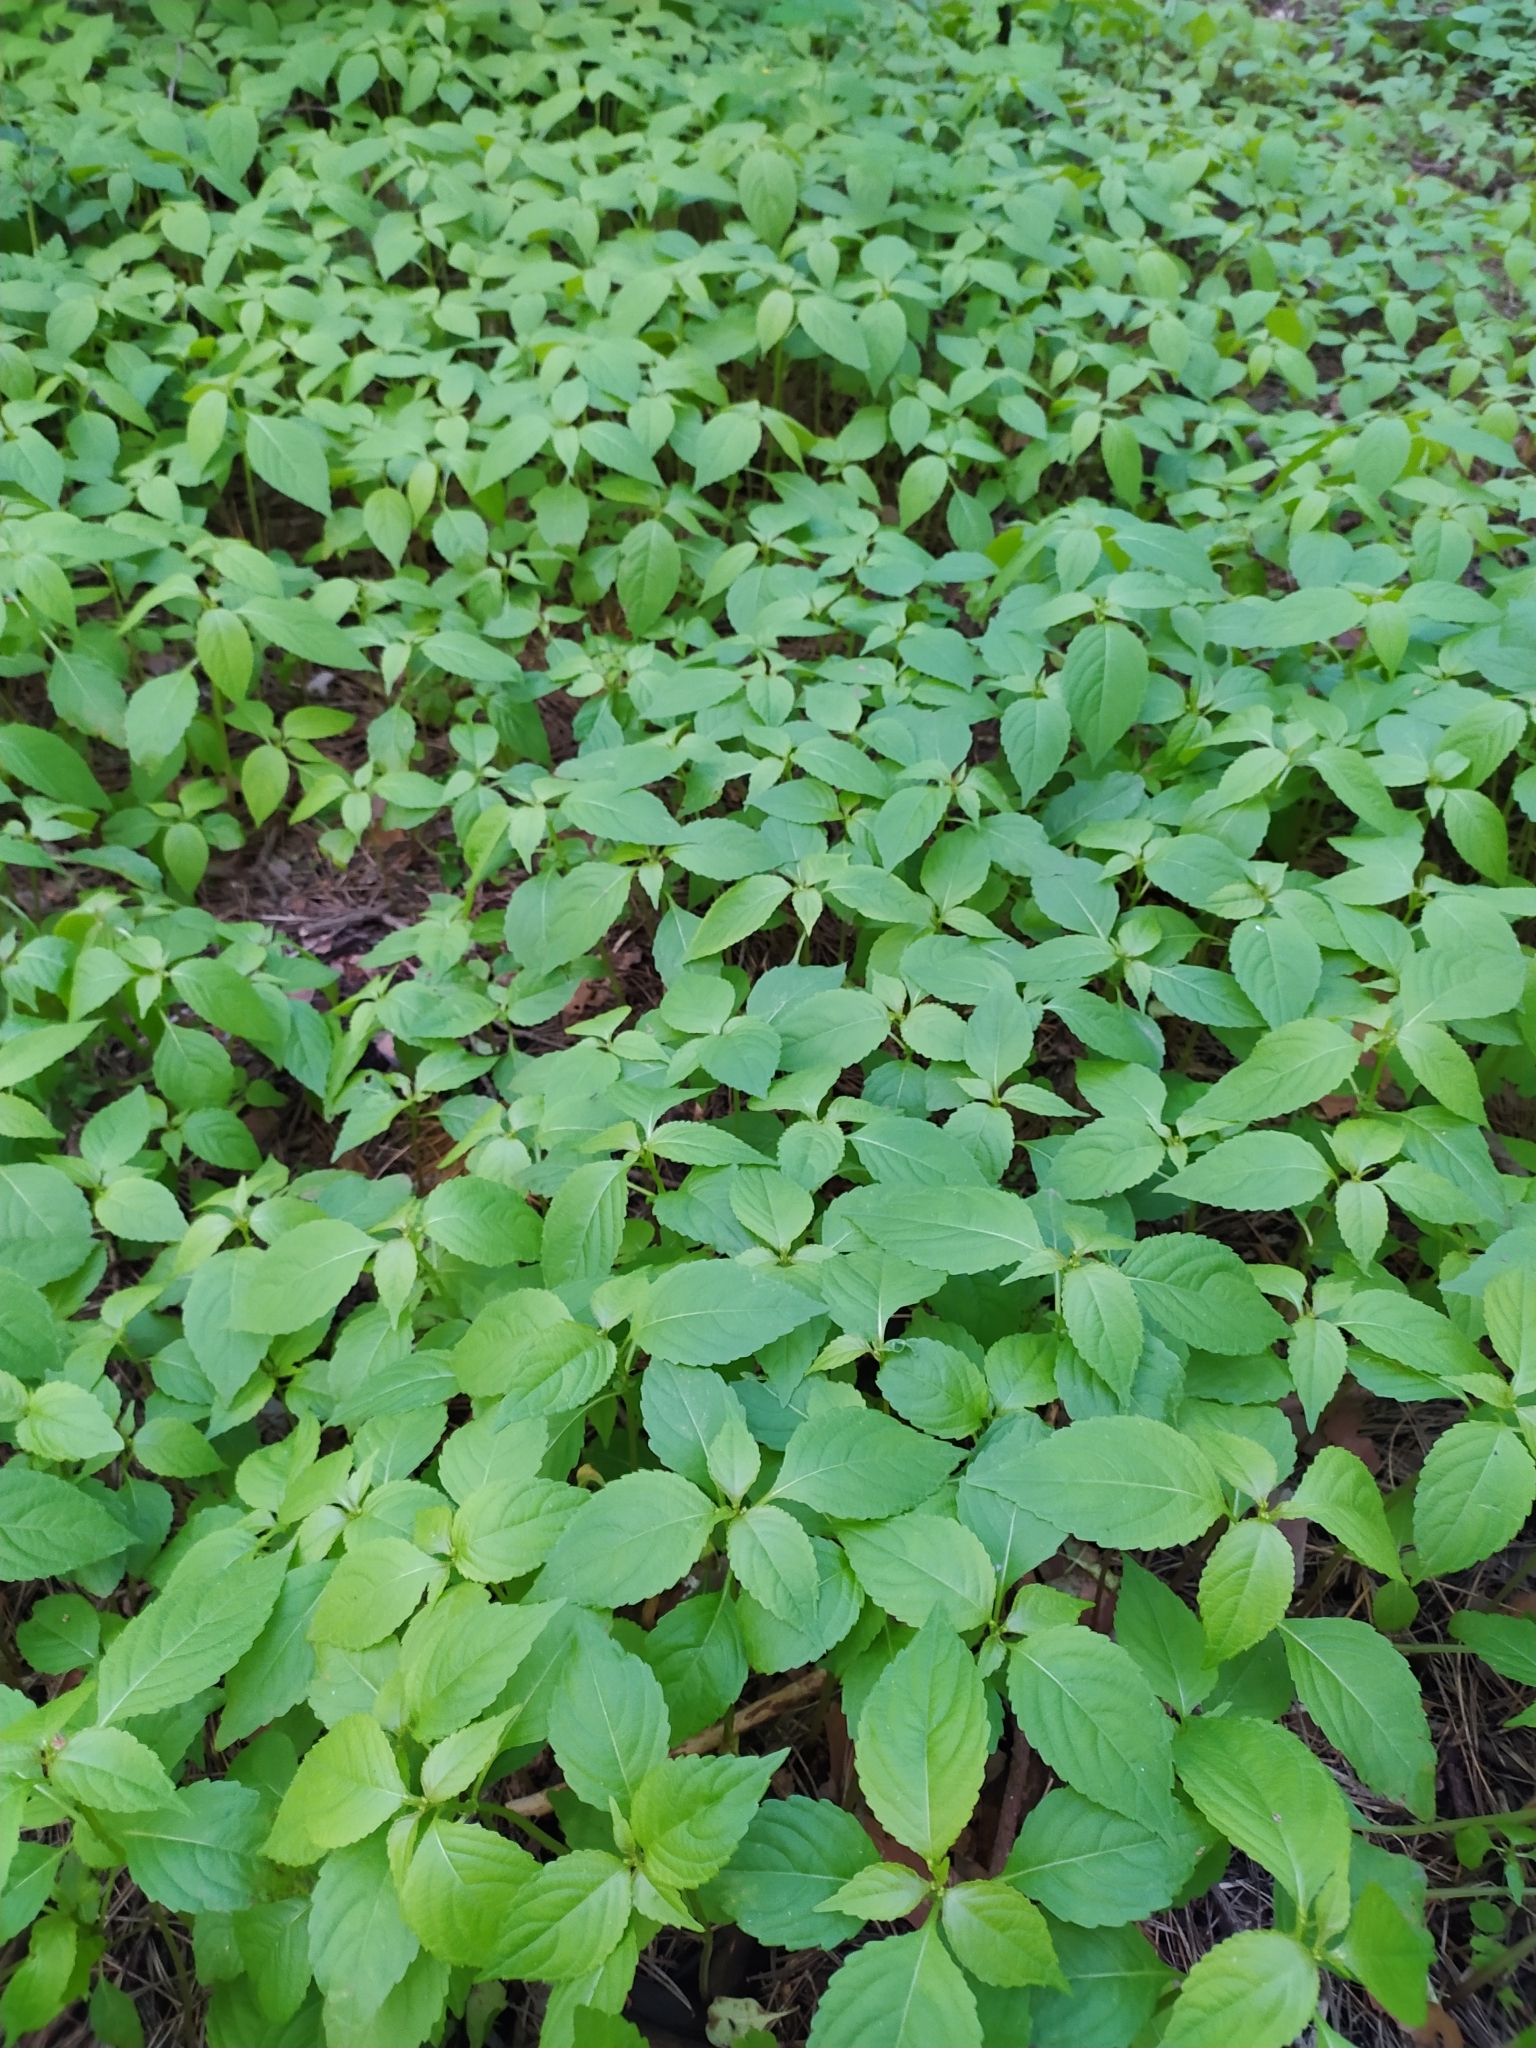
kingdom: Plantae
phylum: Tracheophyta
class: Magnoliopsida
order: Ericales
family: Balsaminaceae
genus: Impatiens
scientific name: Impatiens parviflora
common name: Small balsam
